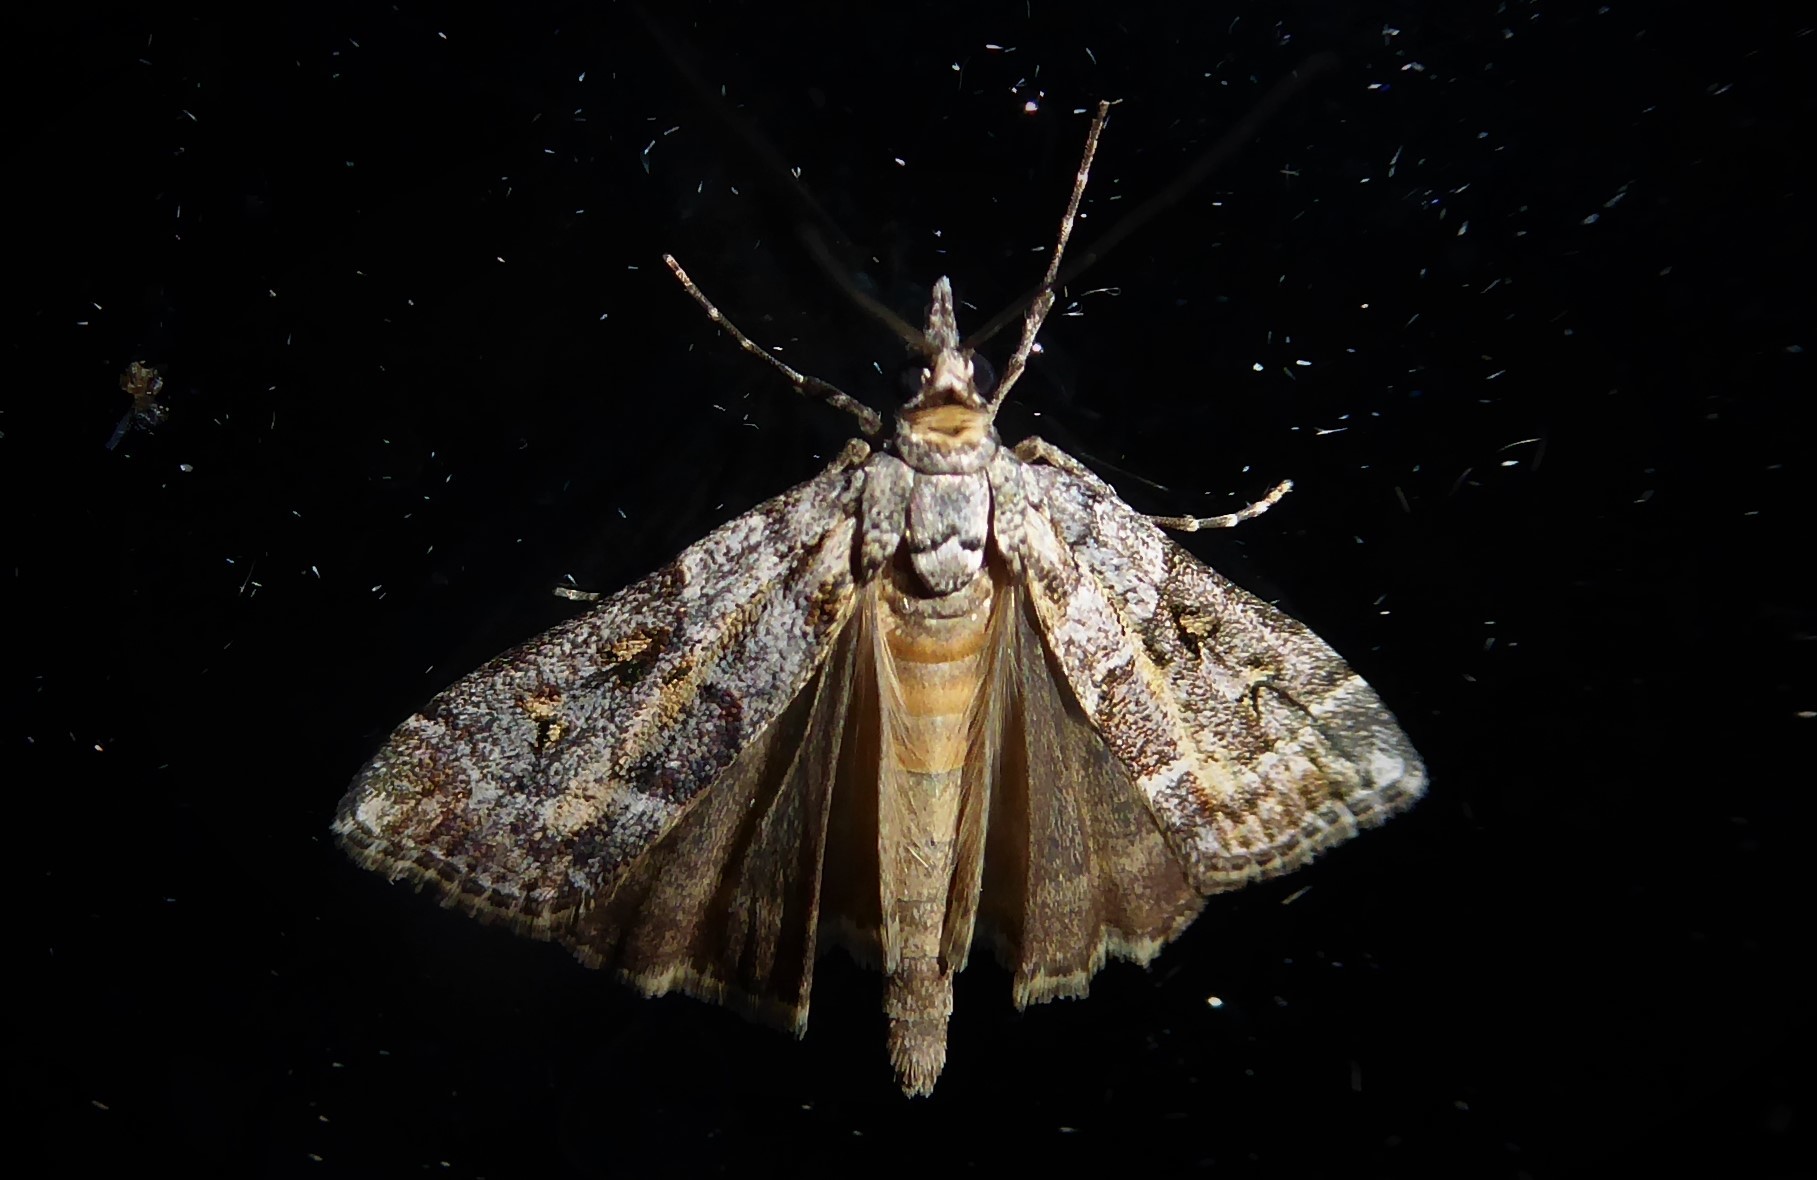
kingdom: Animalia
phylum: Arthropoda
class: Insecta
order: Lepidoptera
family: Crambidae
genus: Eudonia
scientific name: Eudonia diphtheralis
